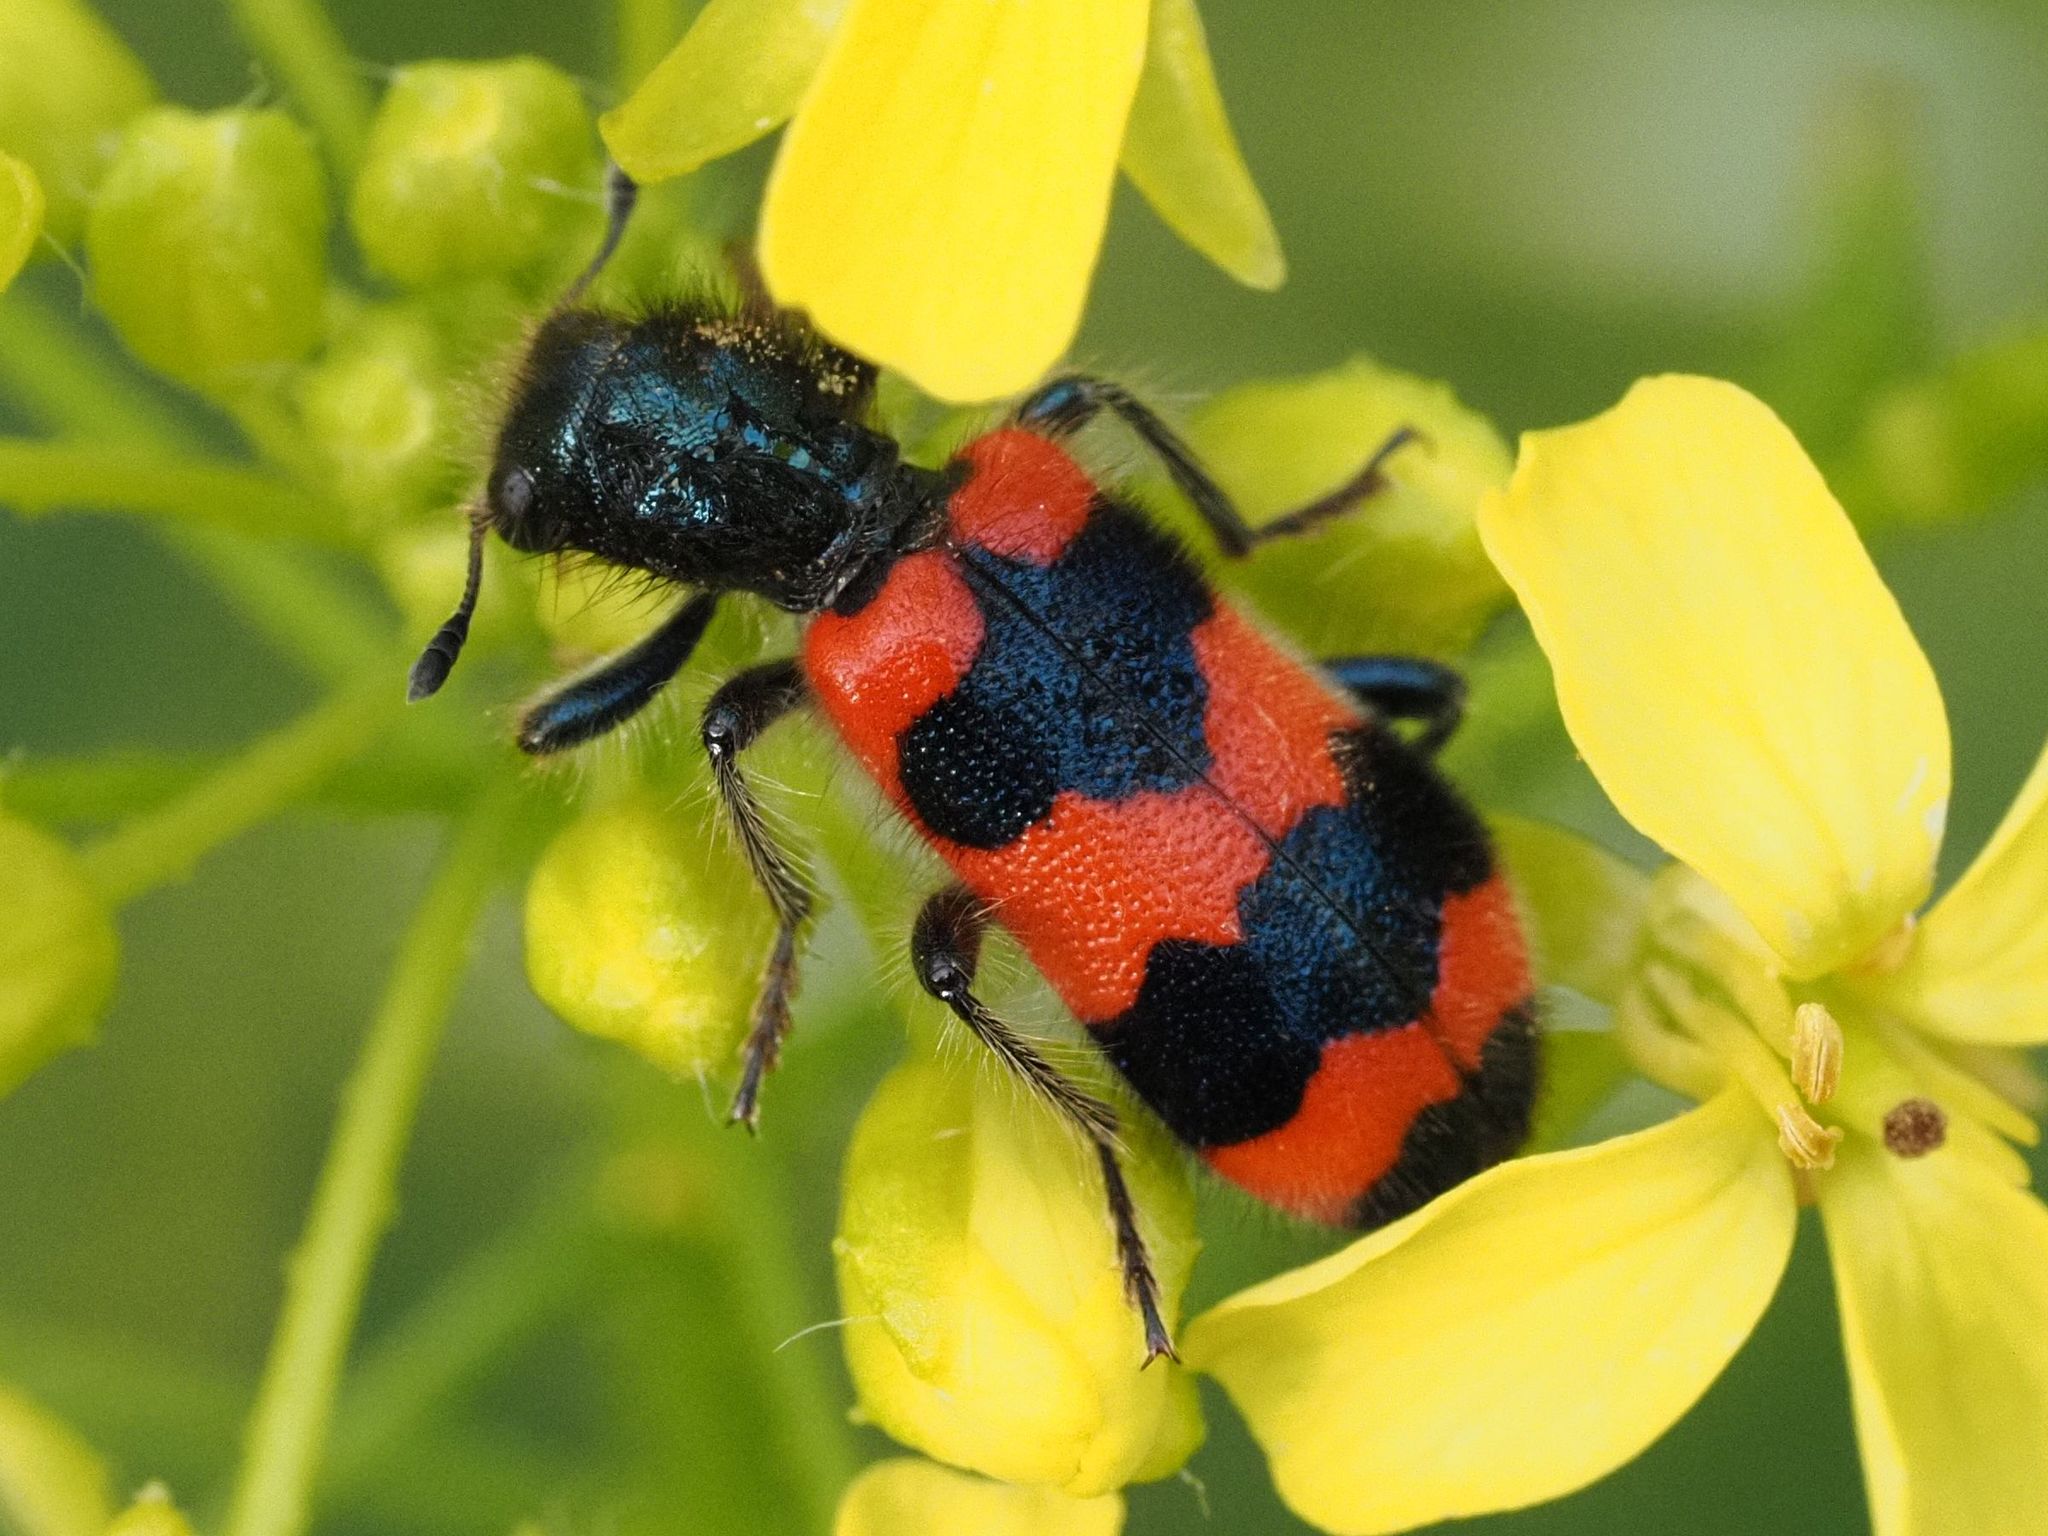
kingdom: Animalia
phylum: Arthropoda
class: Insecta
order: Coleoptera
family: Cleridae
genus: Trichodes
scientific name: Trichodes apiarius
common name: Bee-eating beetle
